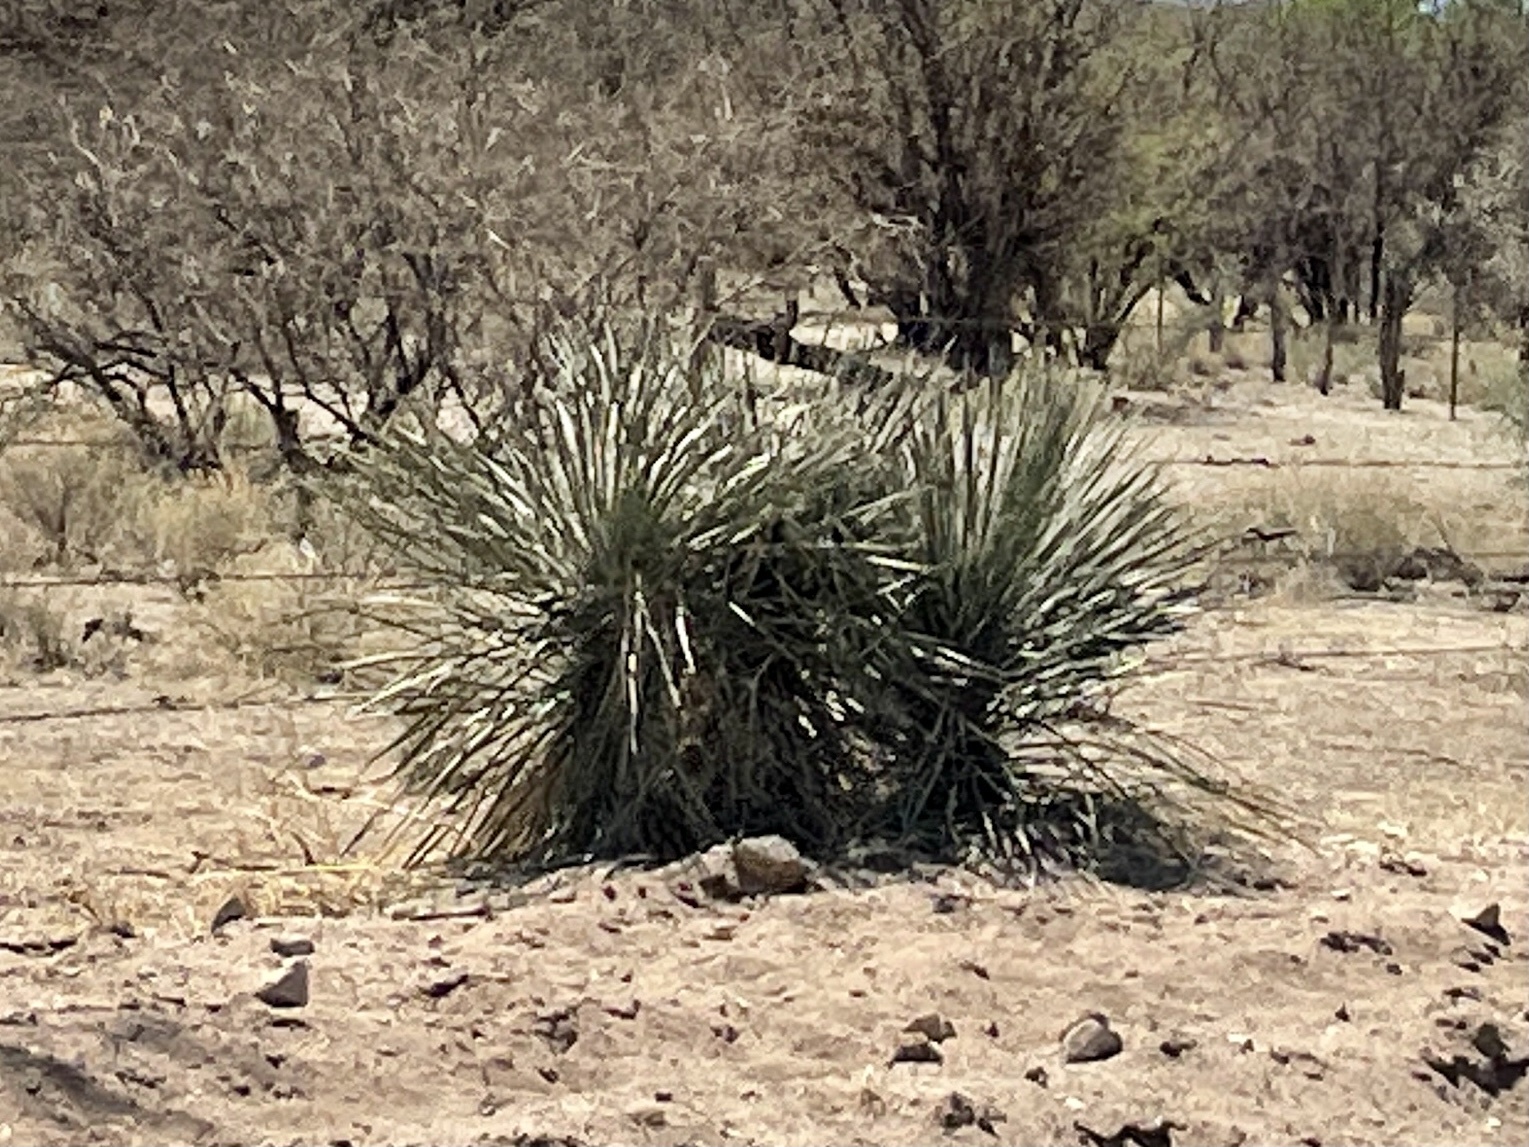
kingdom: Plantae
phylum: Tracheophyta
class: Liliopsida
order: Asparagales
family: Asparagaceae
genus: Yucca
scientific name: Yucca elata
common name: Palmella
